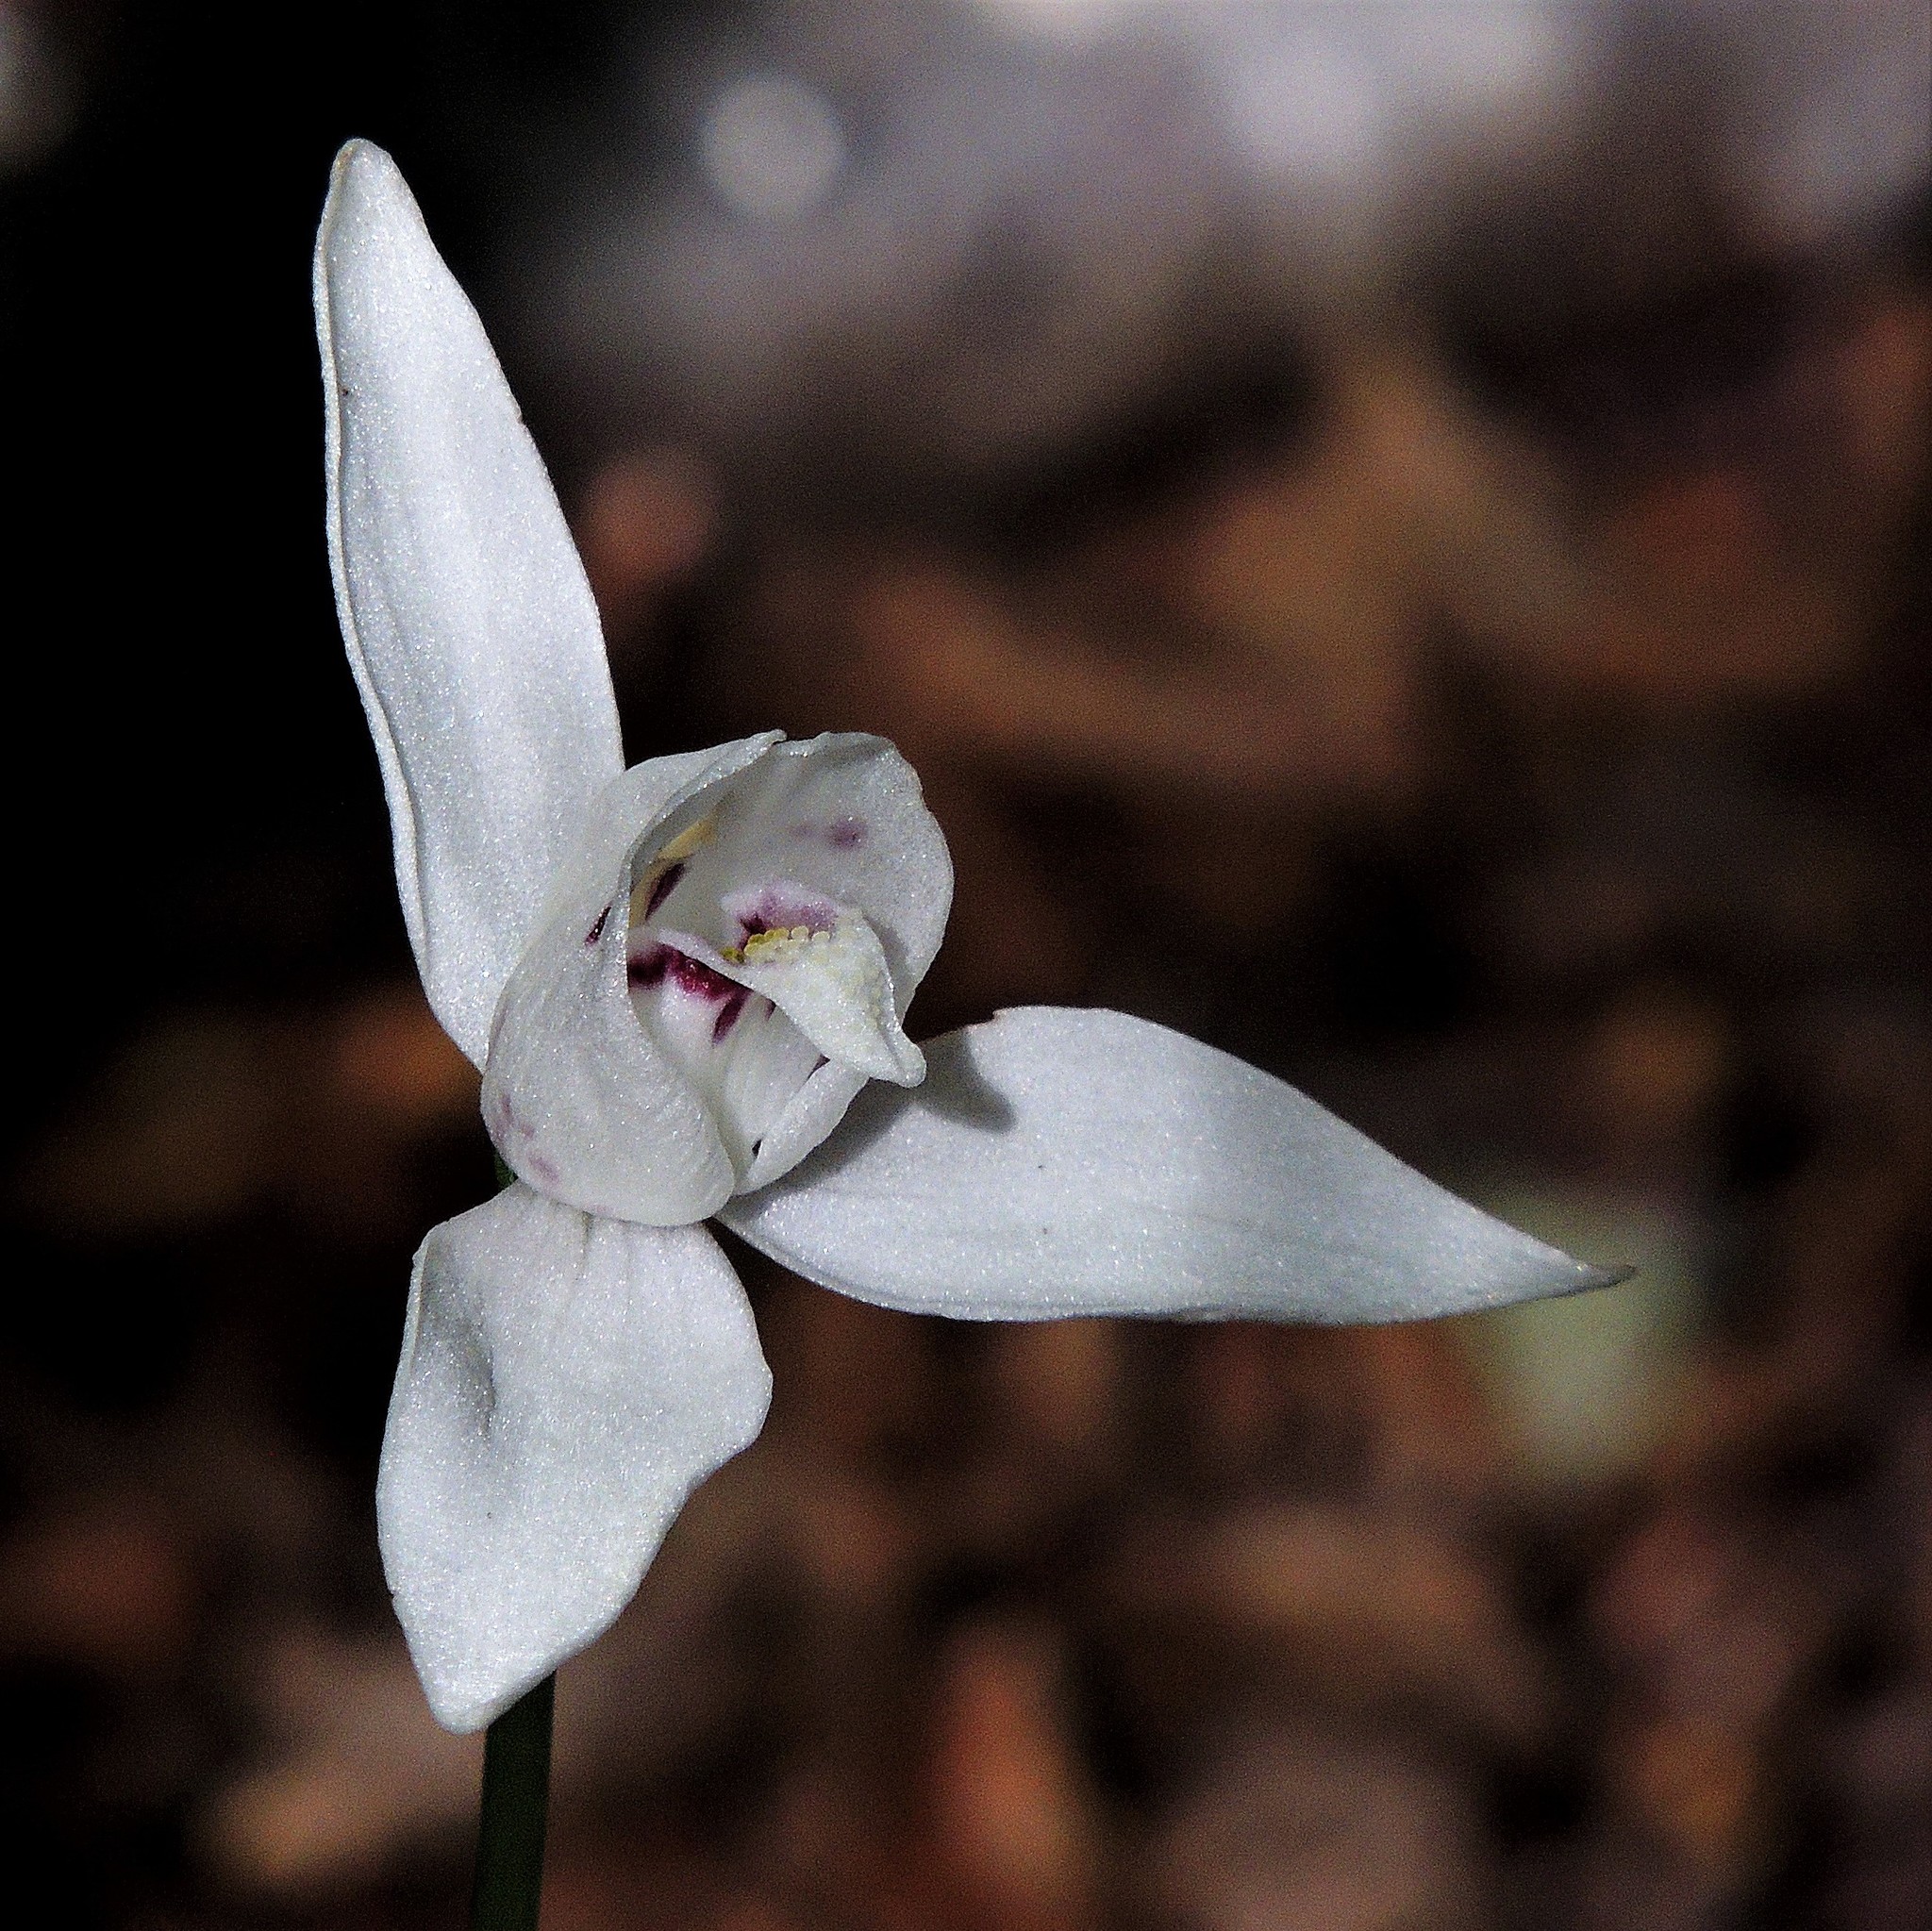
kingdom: Plantae
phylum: Tracheophyta
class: Liliopsida
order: Asparagales
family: Orchidaceae
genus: Codonorchis
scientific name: Codonorchis lessonii
